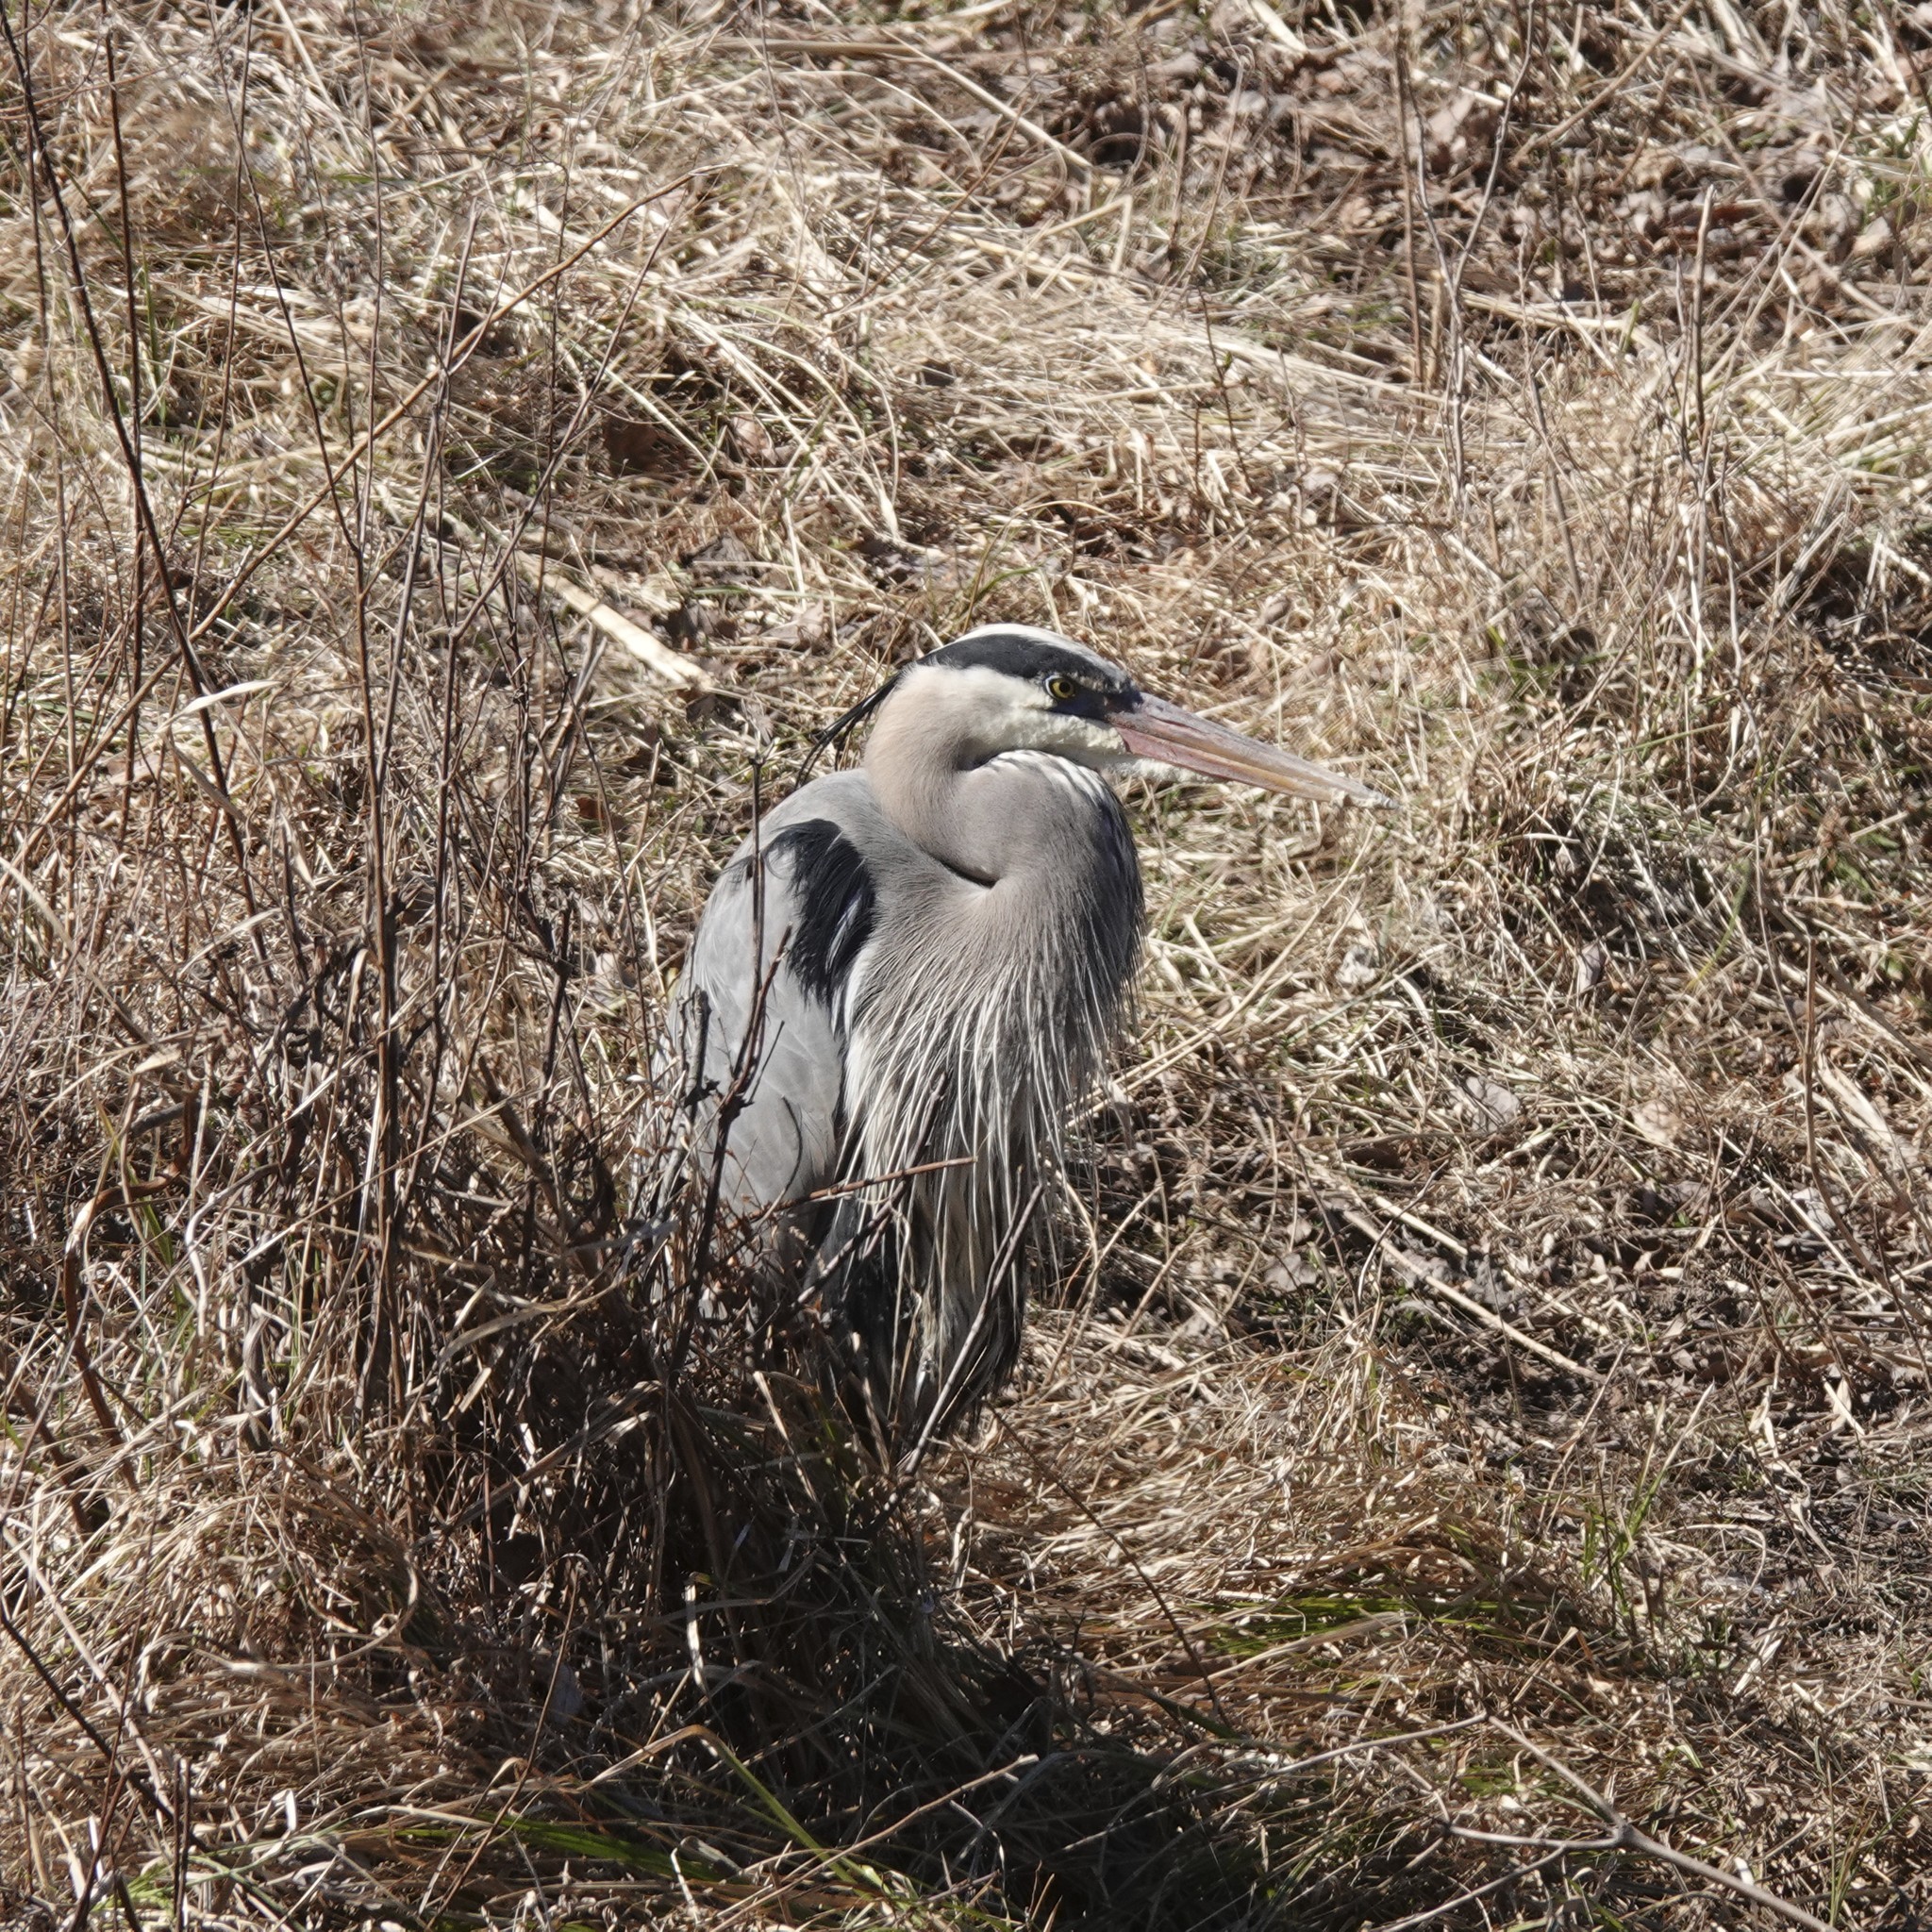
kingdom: Animalia
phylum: Chordata
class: Aves
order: Pelecaniformes
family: Ardeidae
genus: Ardea
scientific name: Ardea herodias
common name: Great blue heron
